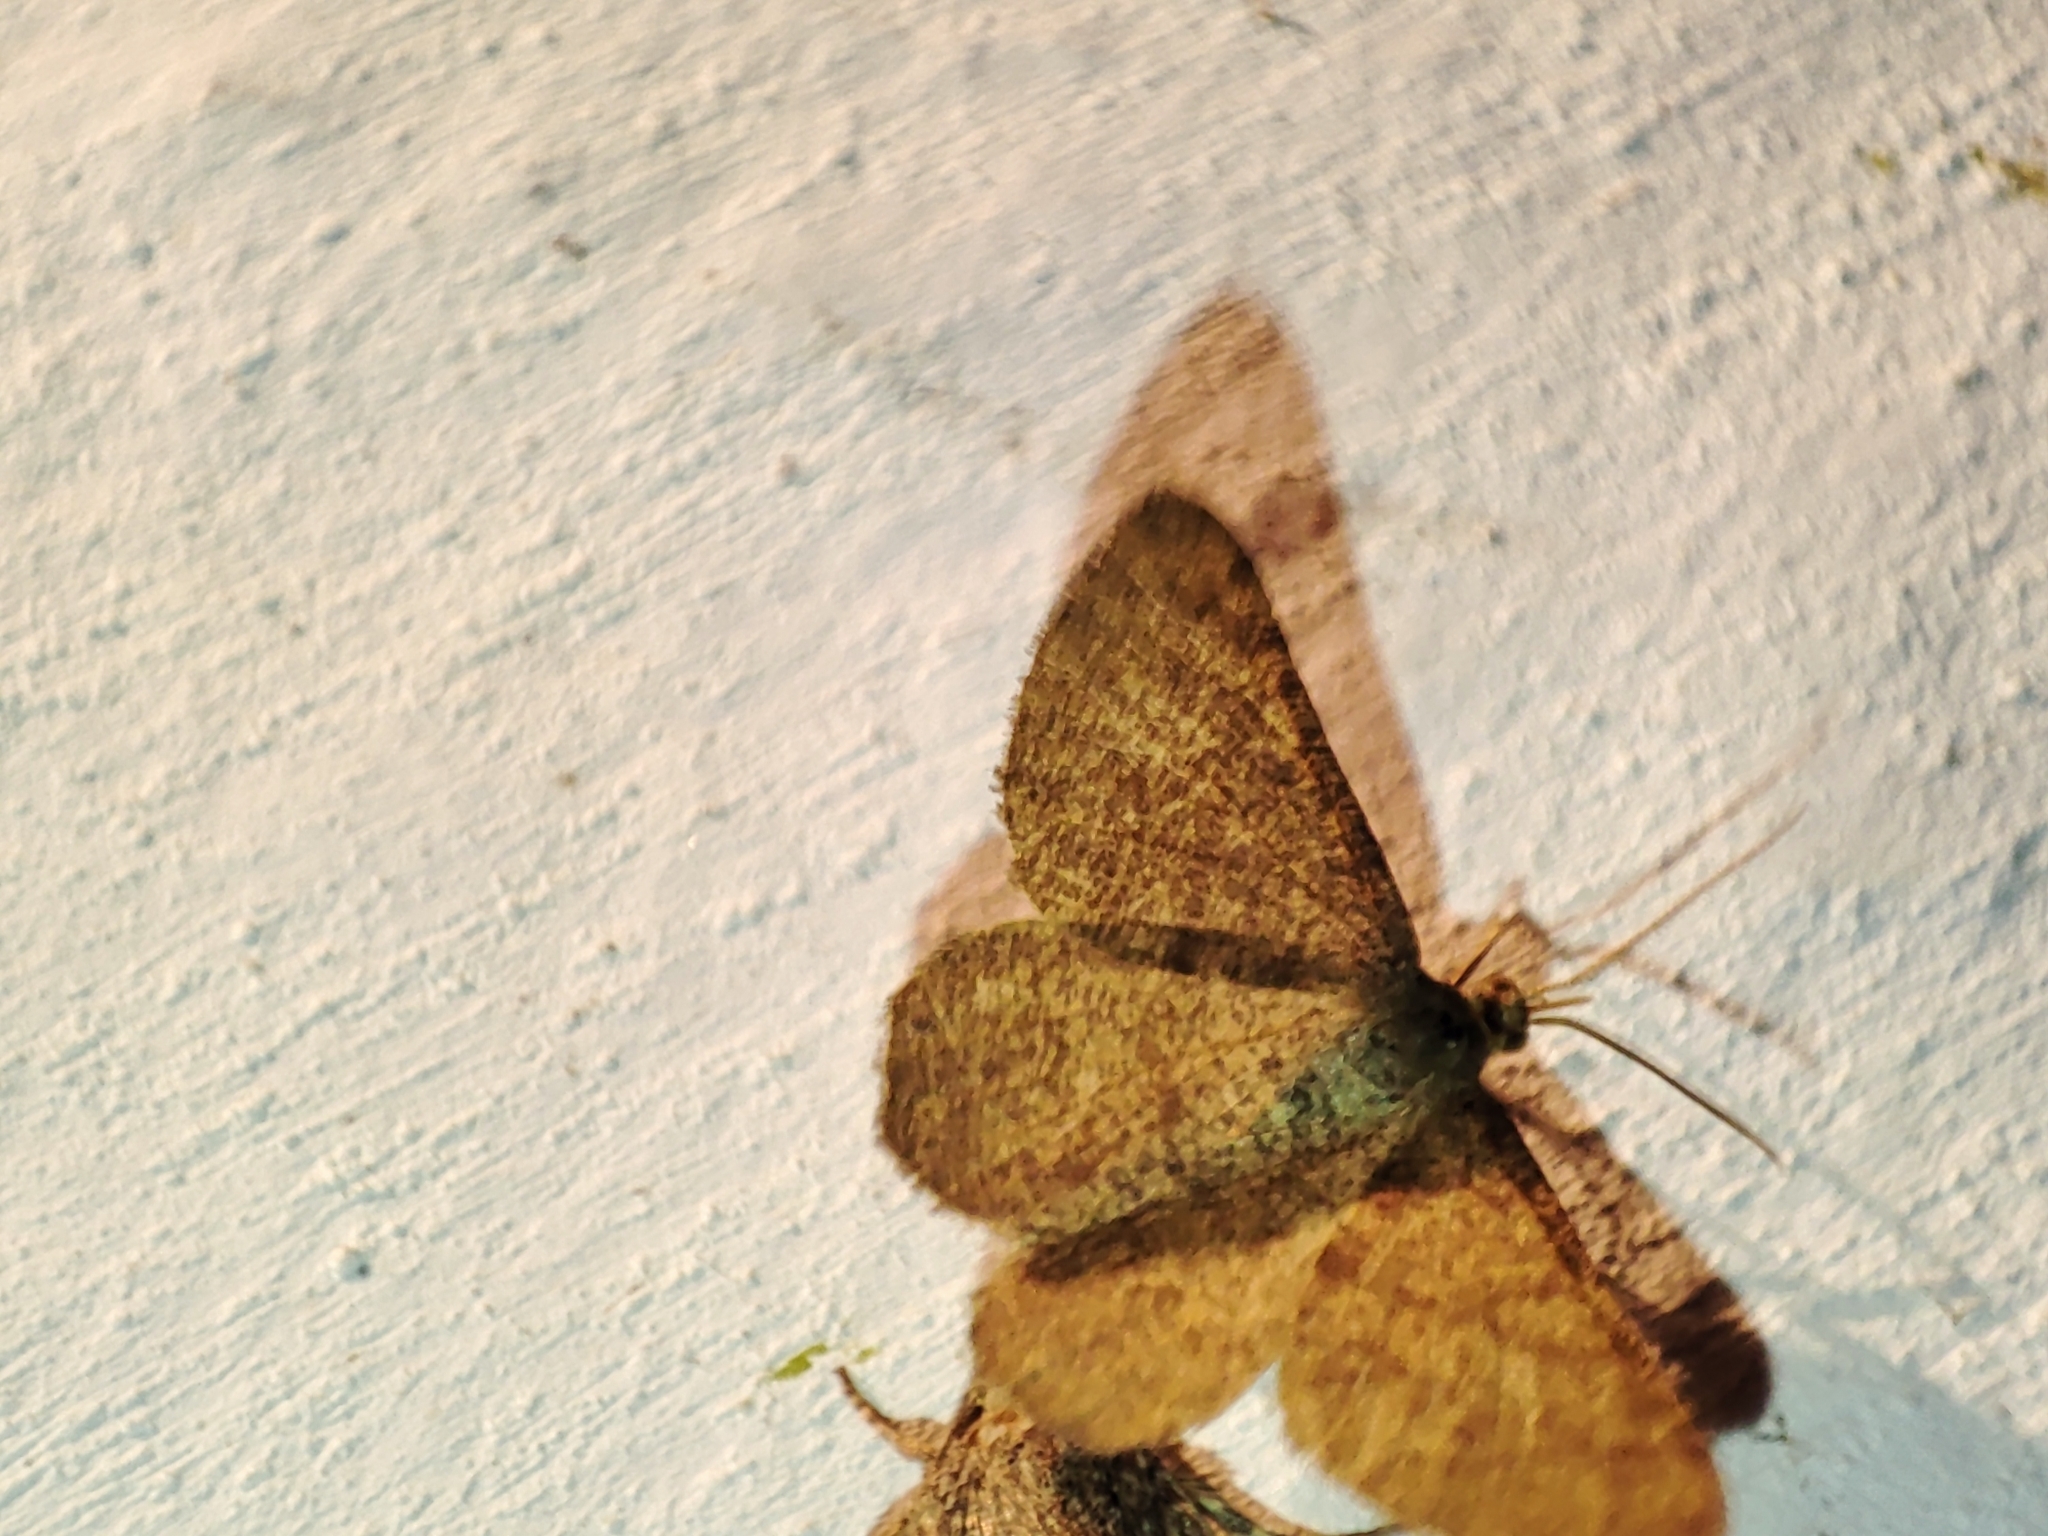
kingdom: Animalia
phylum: Arthropoda
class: Insecta
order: Lepidoptera
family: Geometridae
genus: Tephrina
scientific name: Tephrina murinaria
